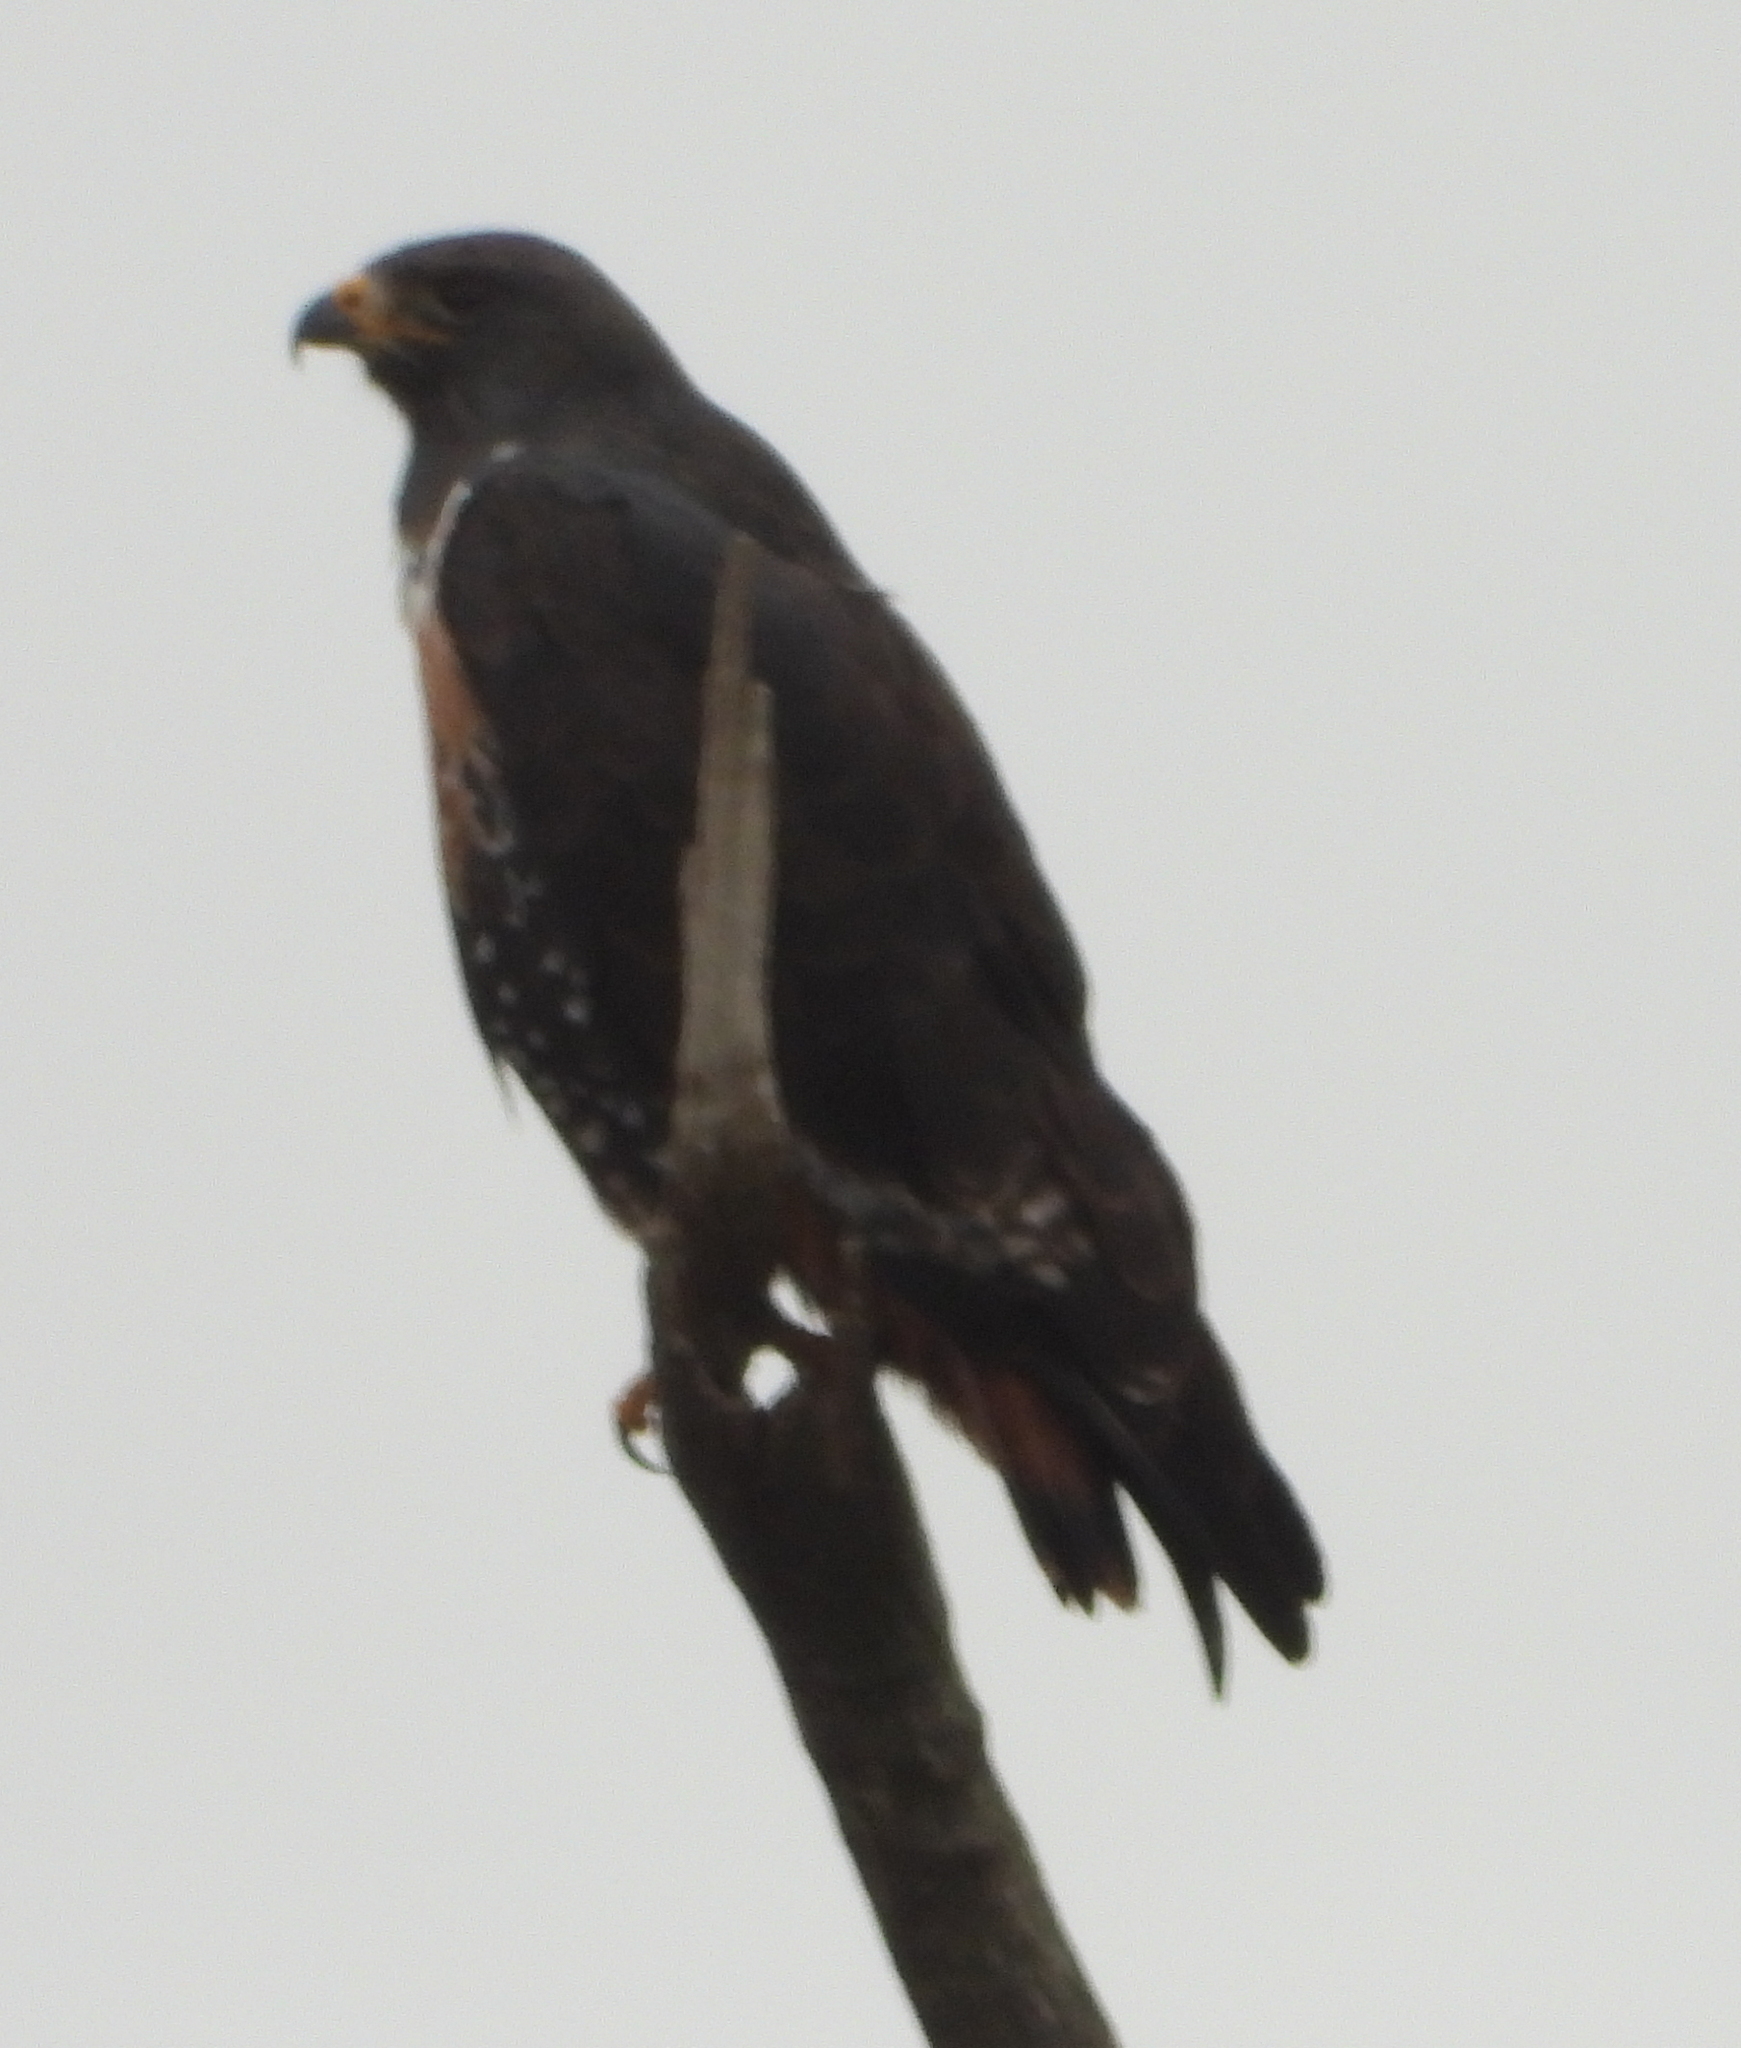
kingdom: Animalia
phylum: Chordata
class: Aves
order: Accipitriformes
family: Accipitridae
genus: Buteo
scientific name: Buteo rufofuscus
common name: Jackal buzzard
